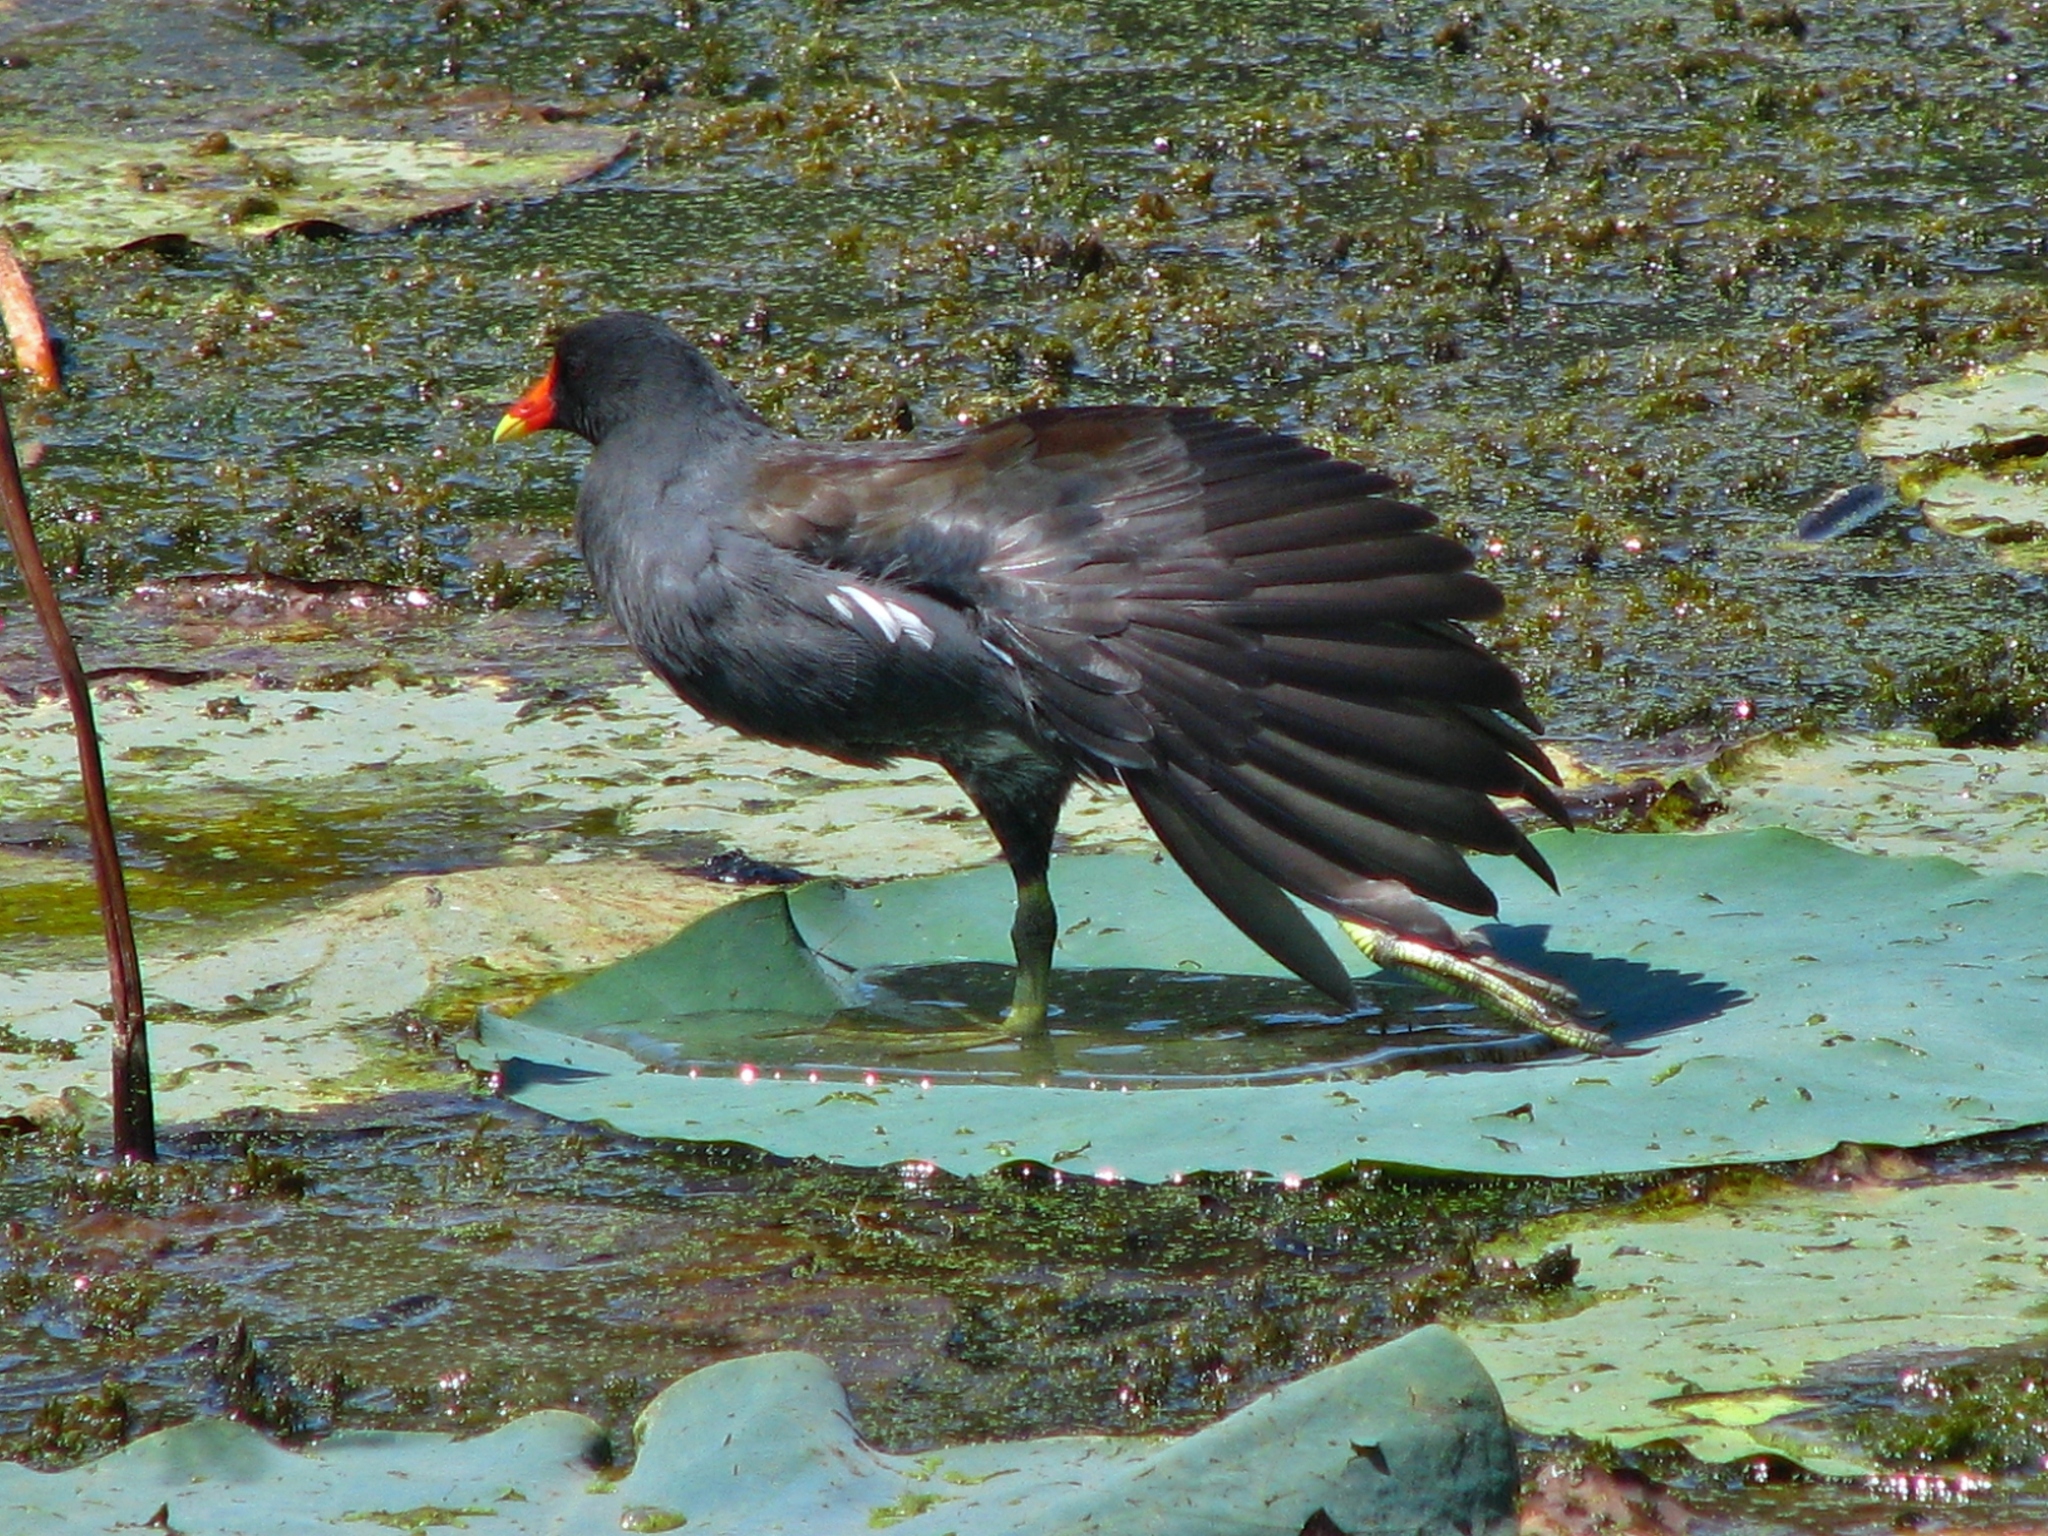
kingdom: Animalia
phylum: Chordata
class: Aves
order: Gruiformes
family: Rallidae
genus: Gallinula
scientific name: Gallinula chloropus
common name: Common moorhen
